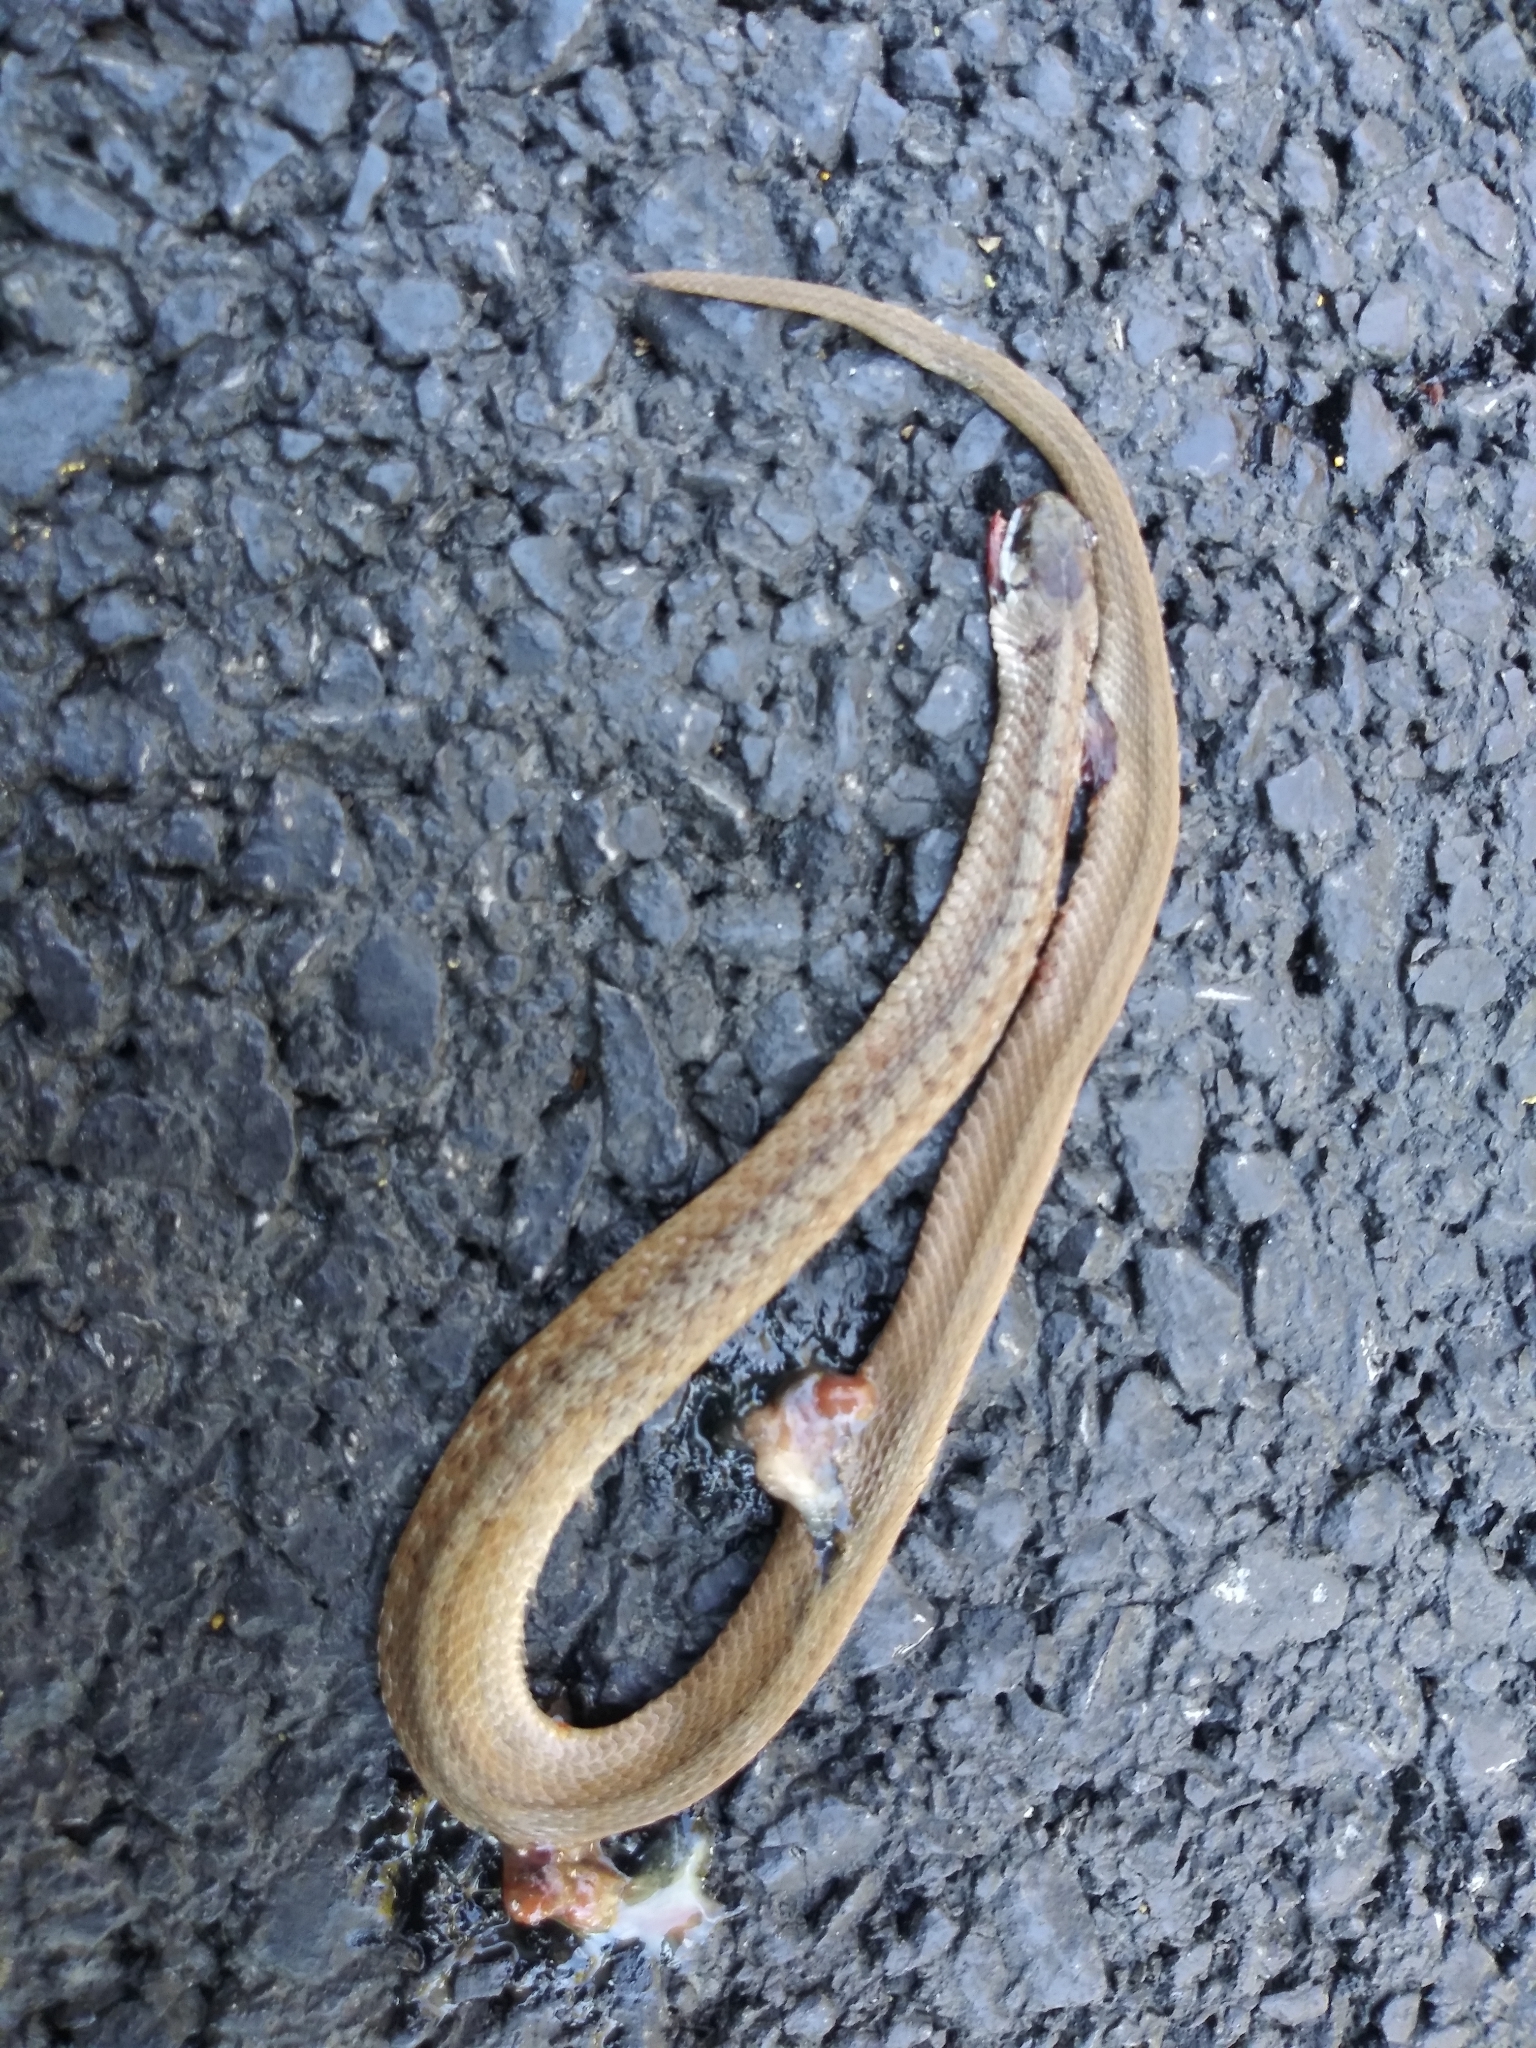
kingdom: Animalia
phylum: Chordata
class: Squamata
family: Colubridae
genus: Storeria
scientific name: Storeria dekayi
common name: (dekay’s) brown snake
